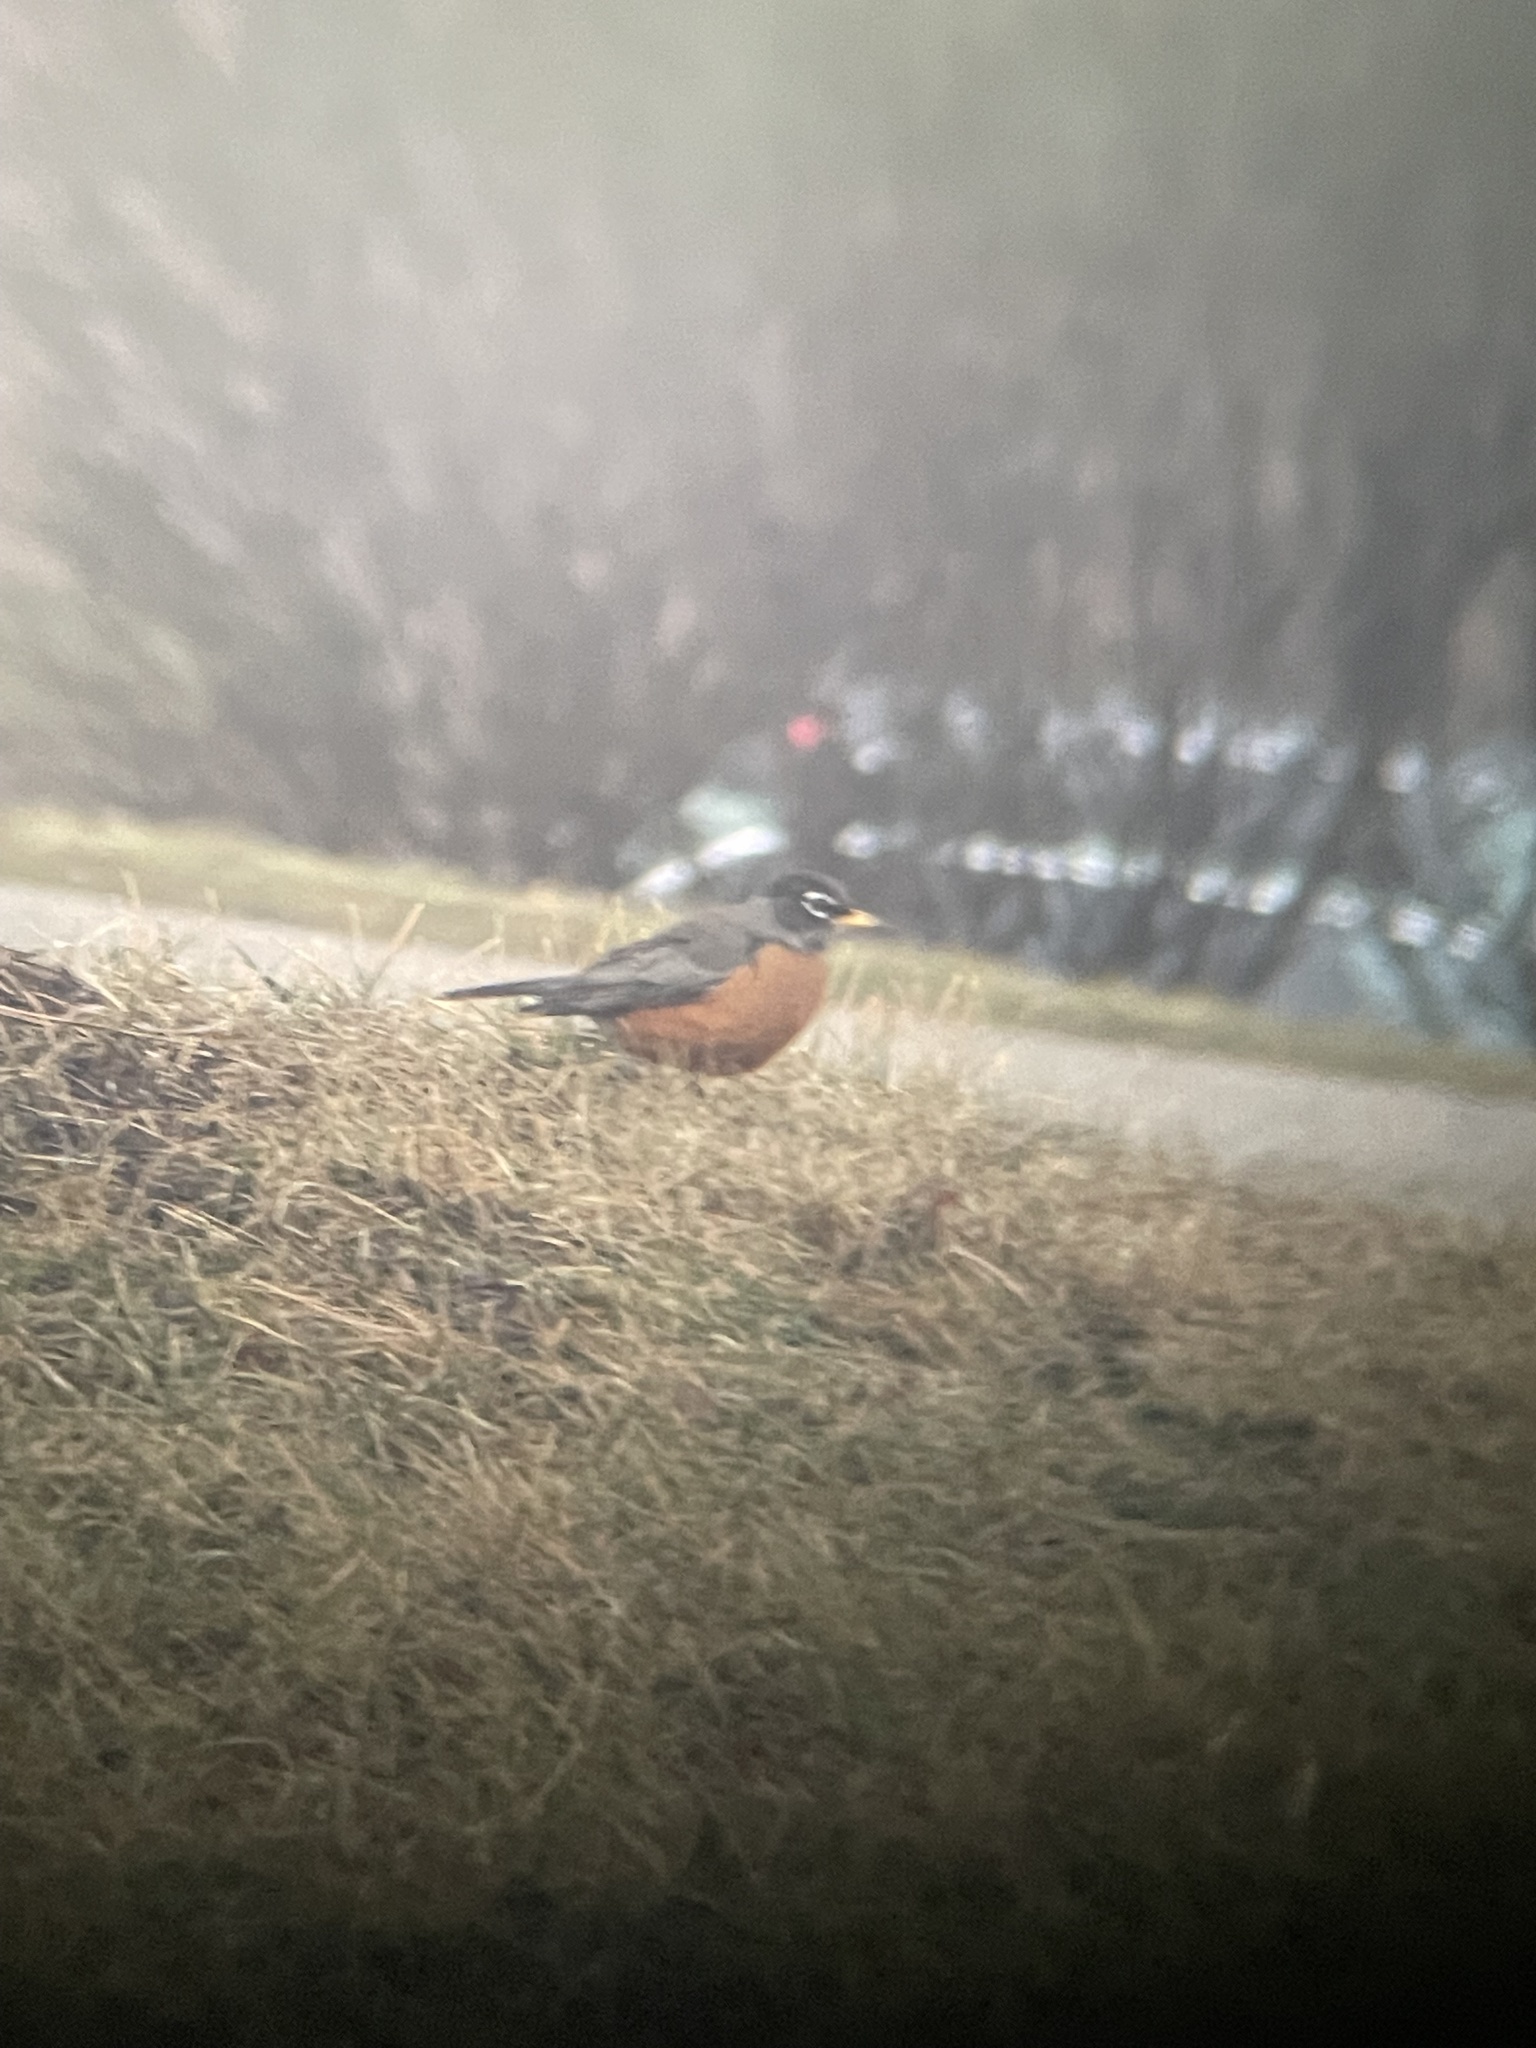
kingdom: Animalia
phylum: Chordata
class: Aves
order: Passeriformes
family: Turdidae
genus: Turdus
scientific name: Turdus migratorius
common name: American robin
